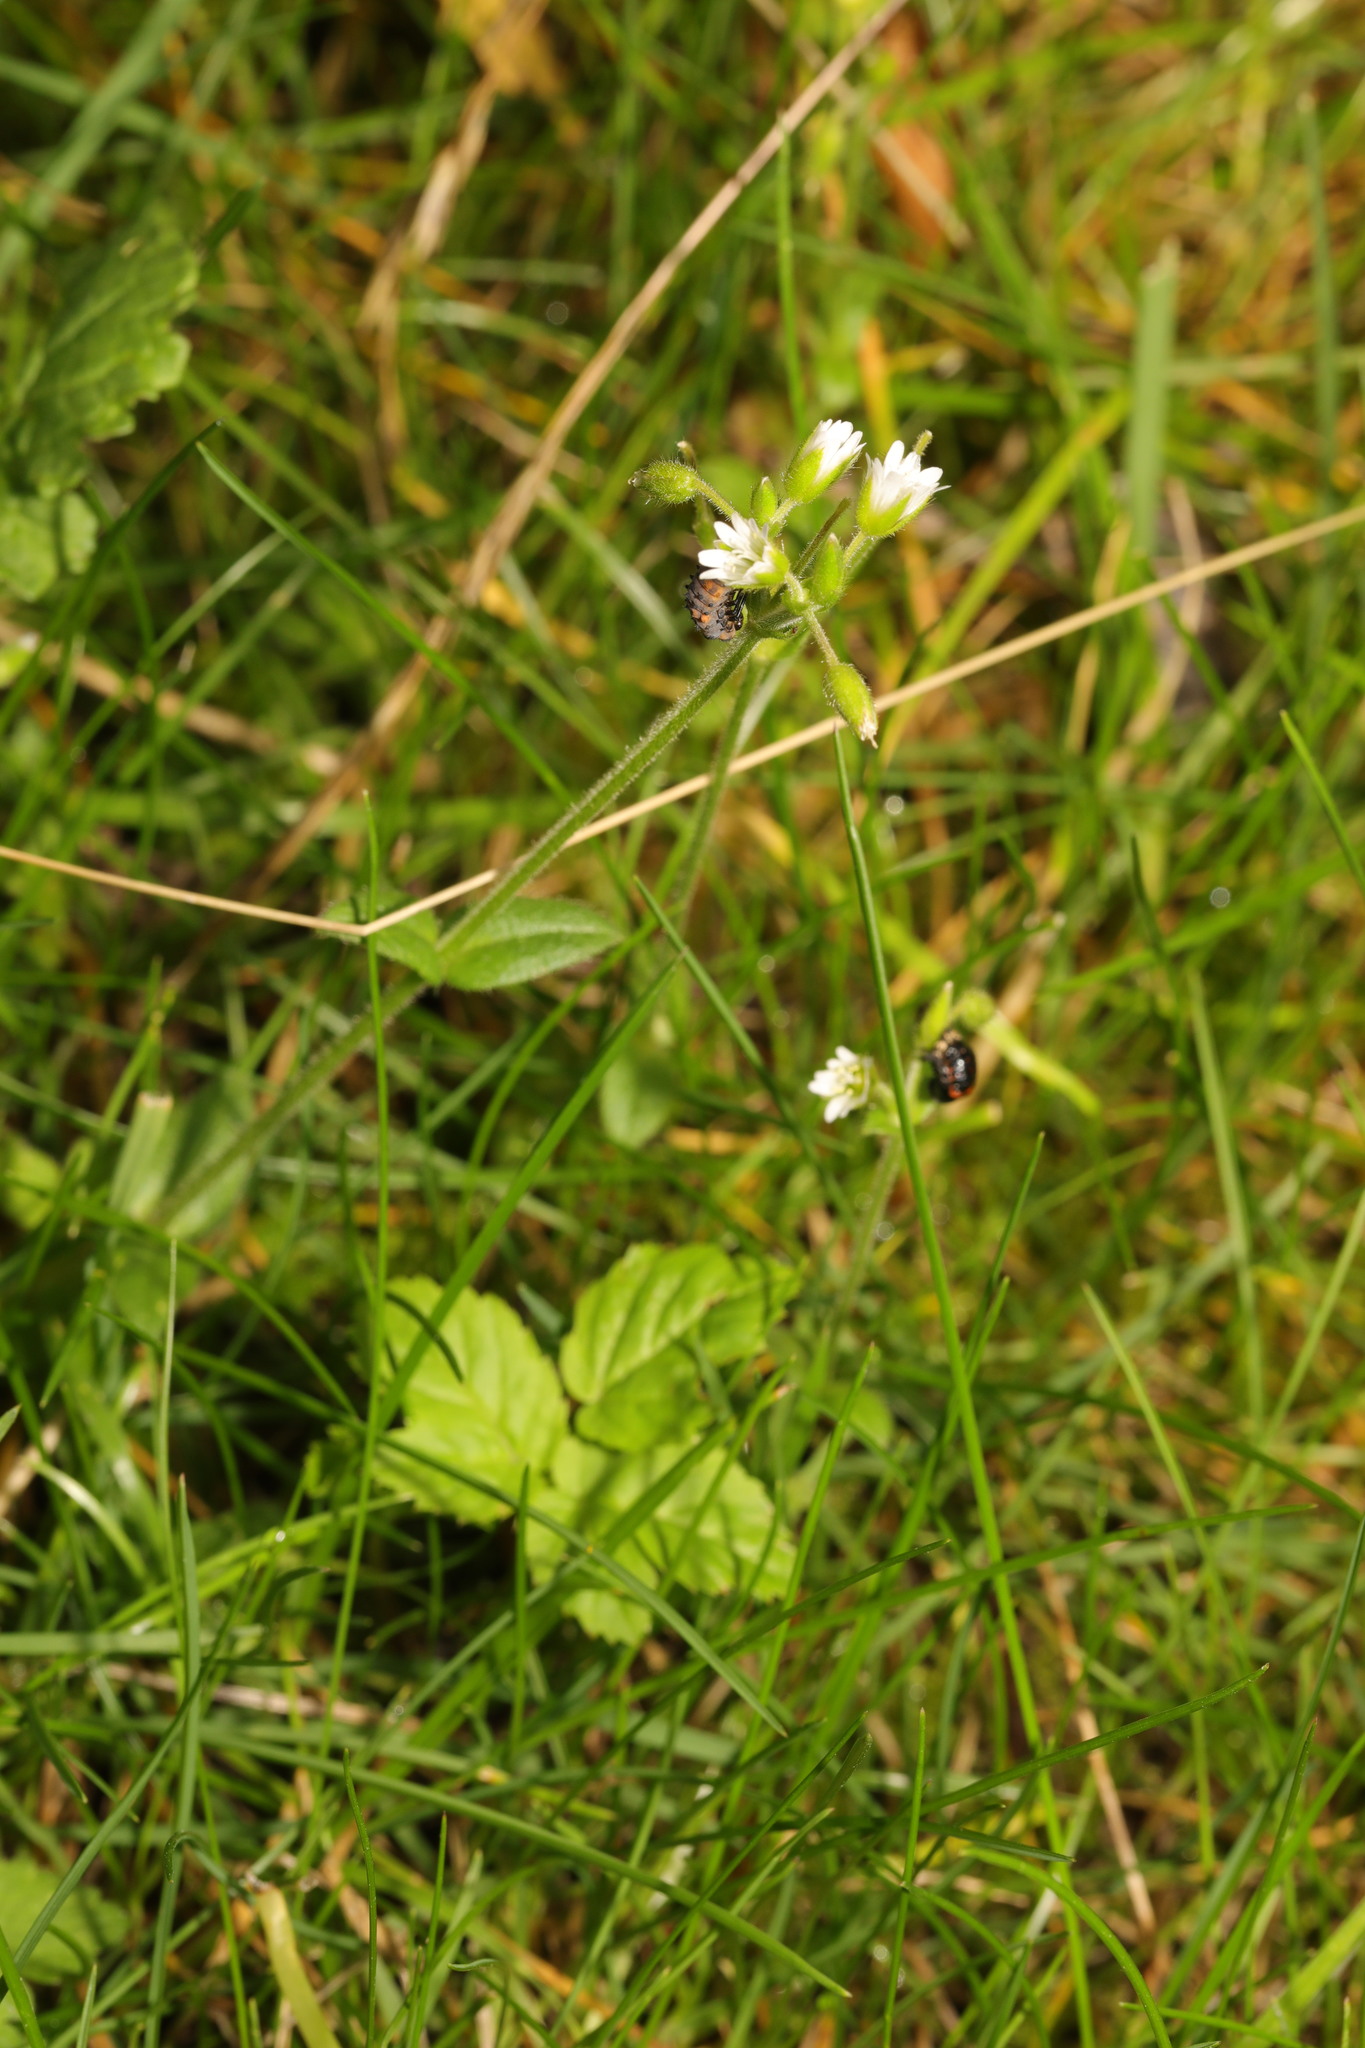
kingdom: Plantae
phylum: Tracheophyta
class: Magnoliopsida
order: Caryophyllales
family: Caryophyllaceae
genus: Cerastium
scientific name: Cerastium fontanum
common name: Common mouse-ear
